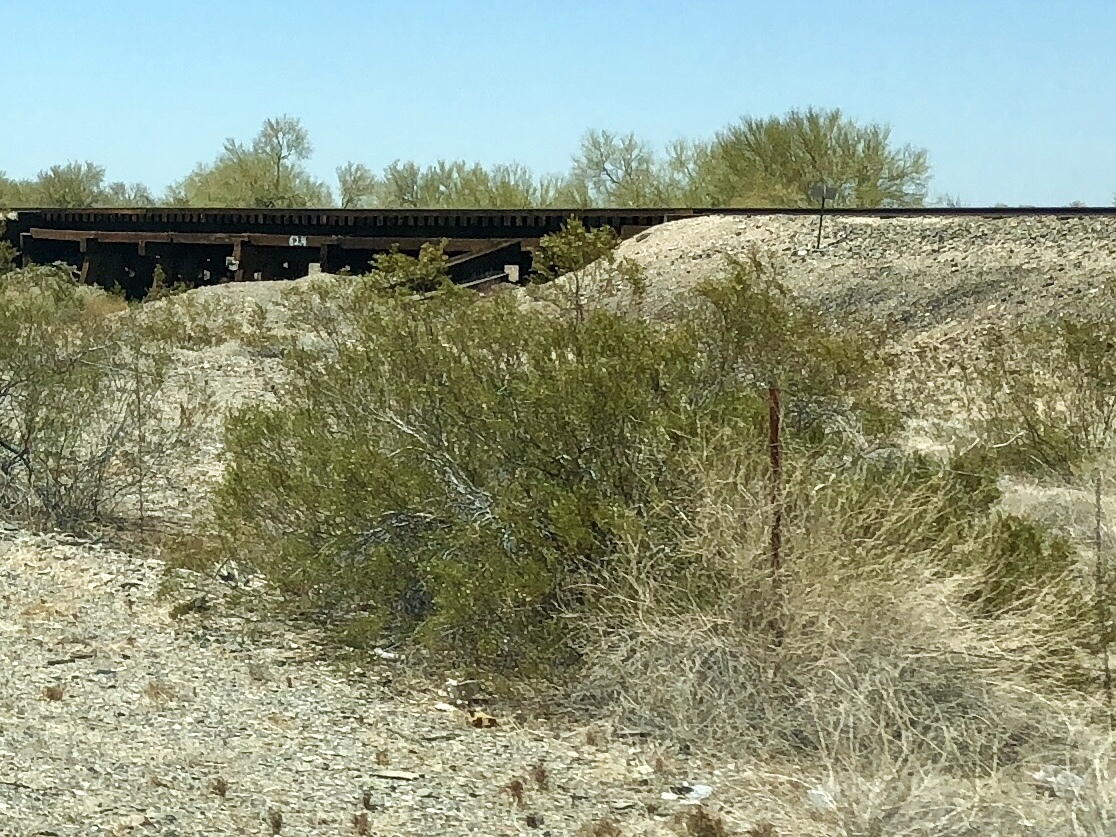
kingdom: Plantae
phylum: Tracheophyta
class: Magnoliopsida
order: Zygophyllales
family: Zygophyllaceae
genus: Larrea
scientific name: Larrea tridentata
